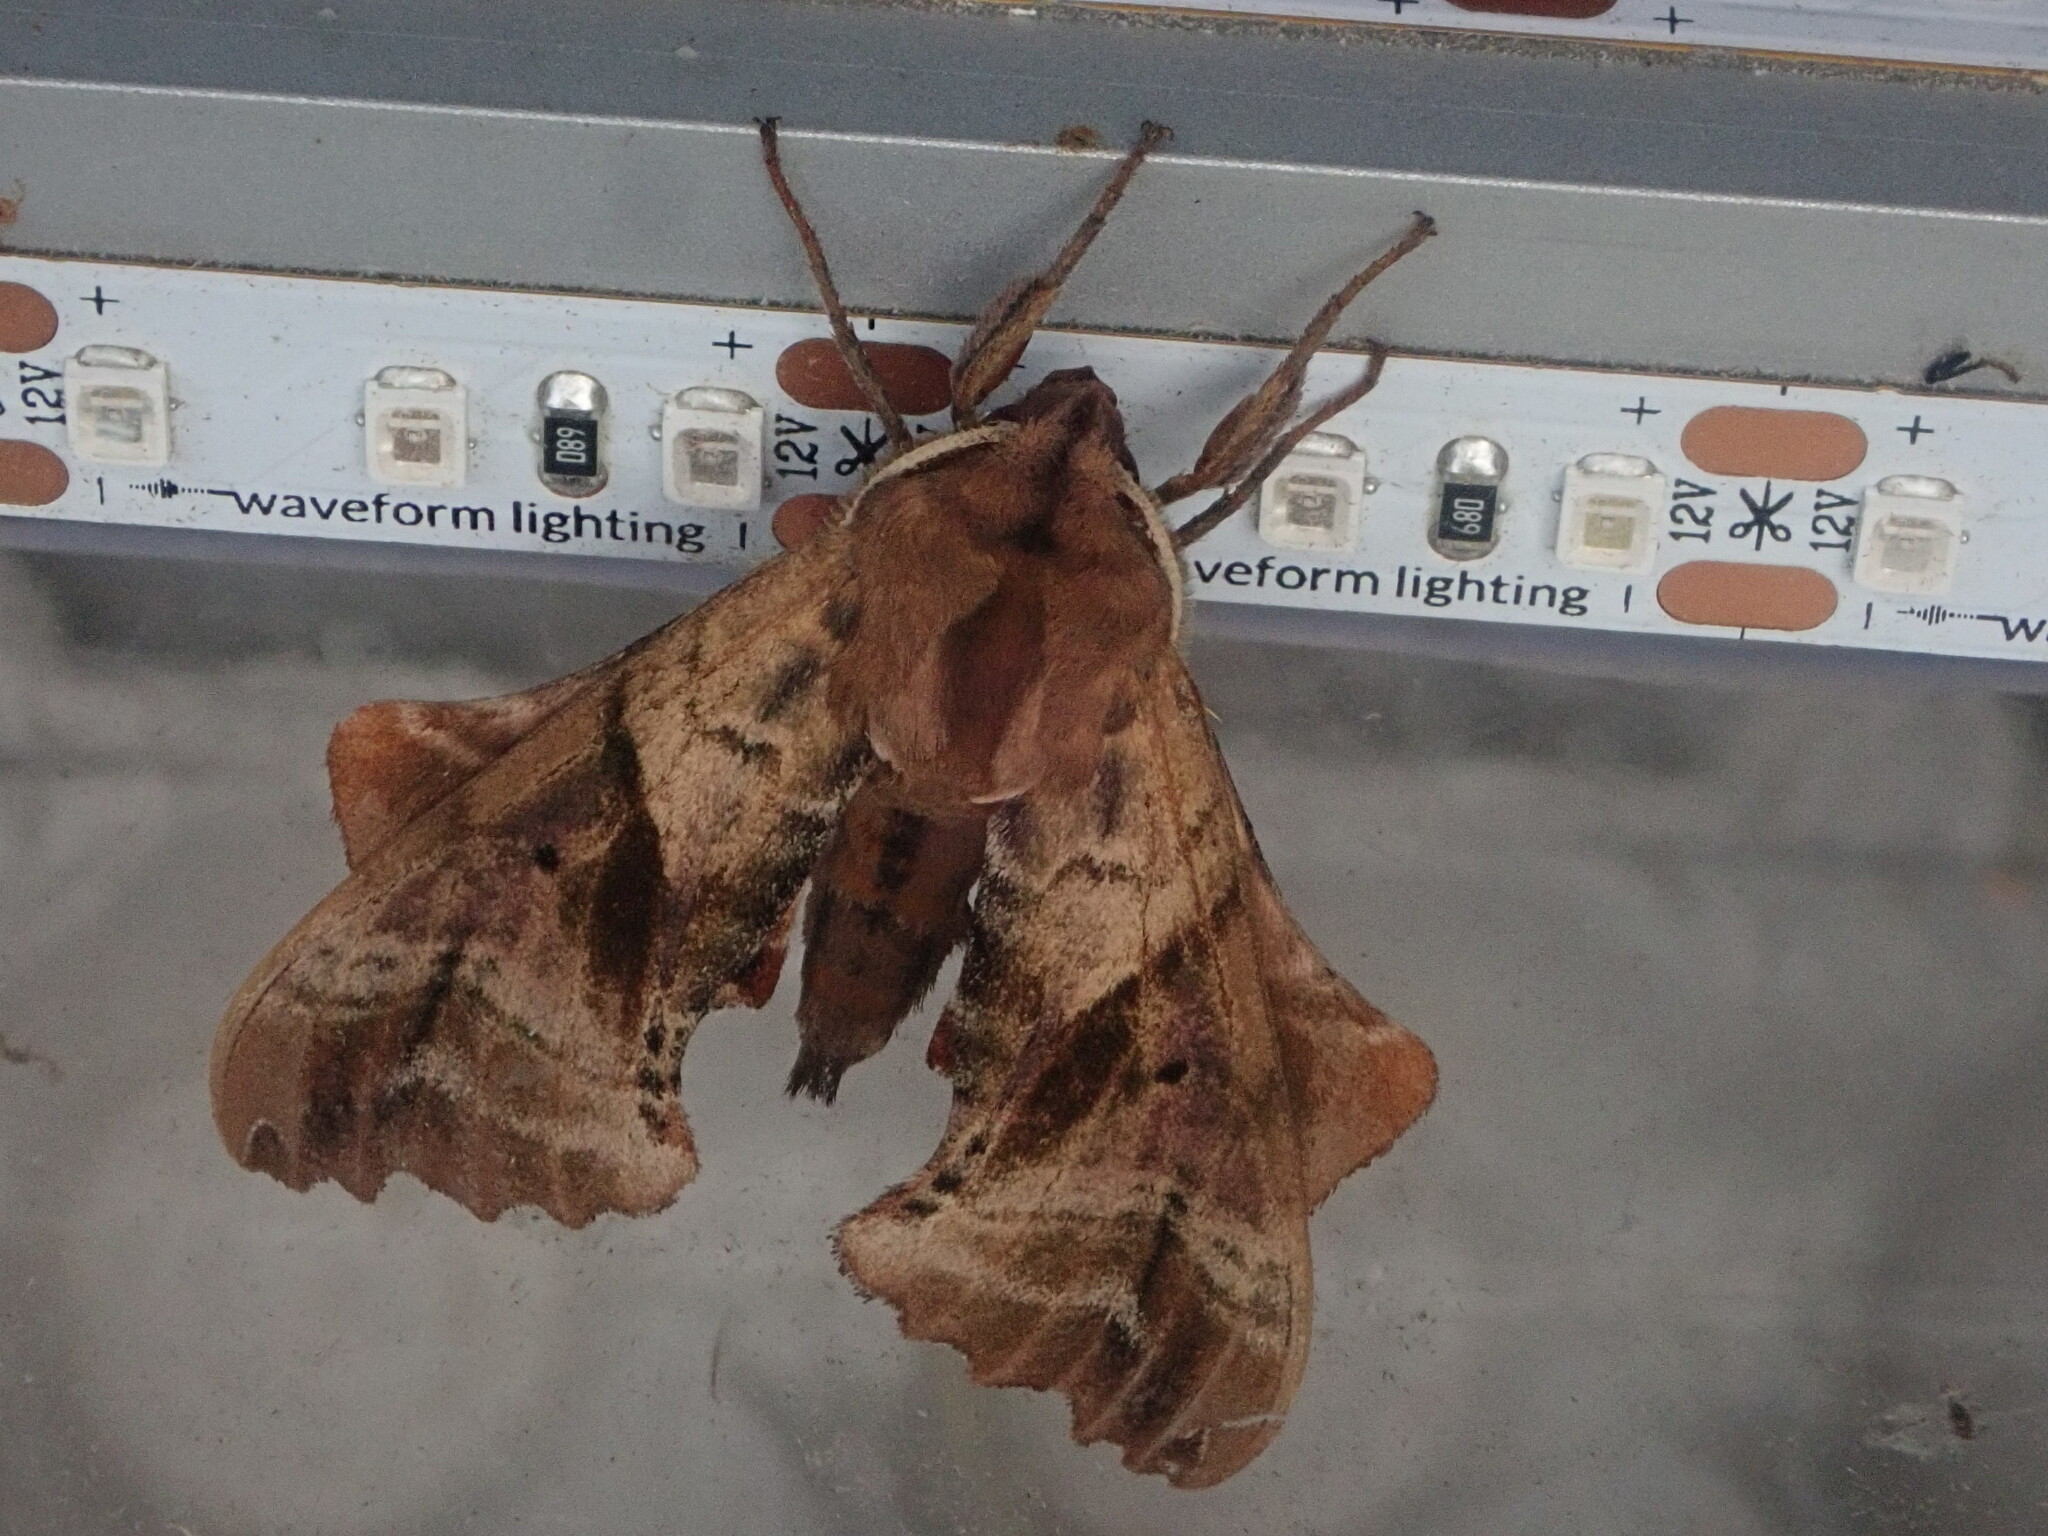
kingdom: Animalia
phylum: Arthropoda
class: Insecta
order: Lepidoptera
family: Sphingidae
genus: Paonias
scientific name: Paonias excaecata
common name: Blind-eyed sphinx
